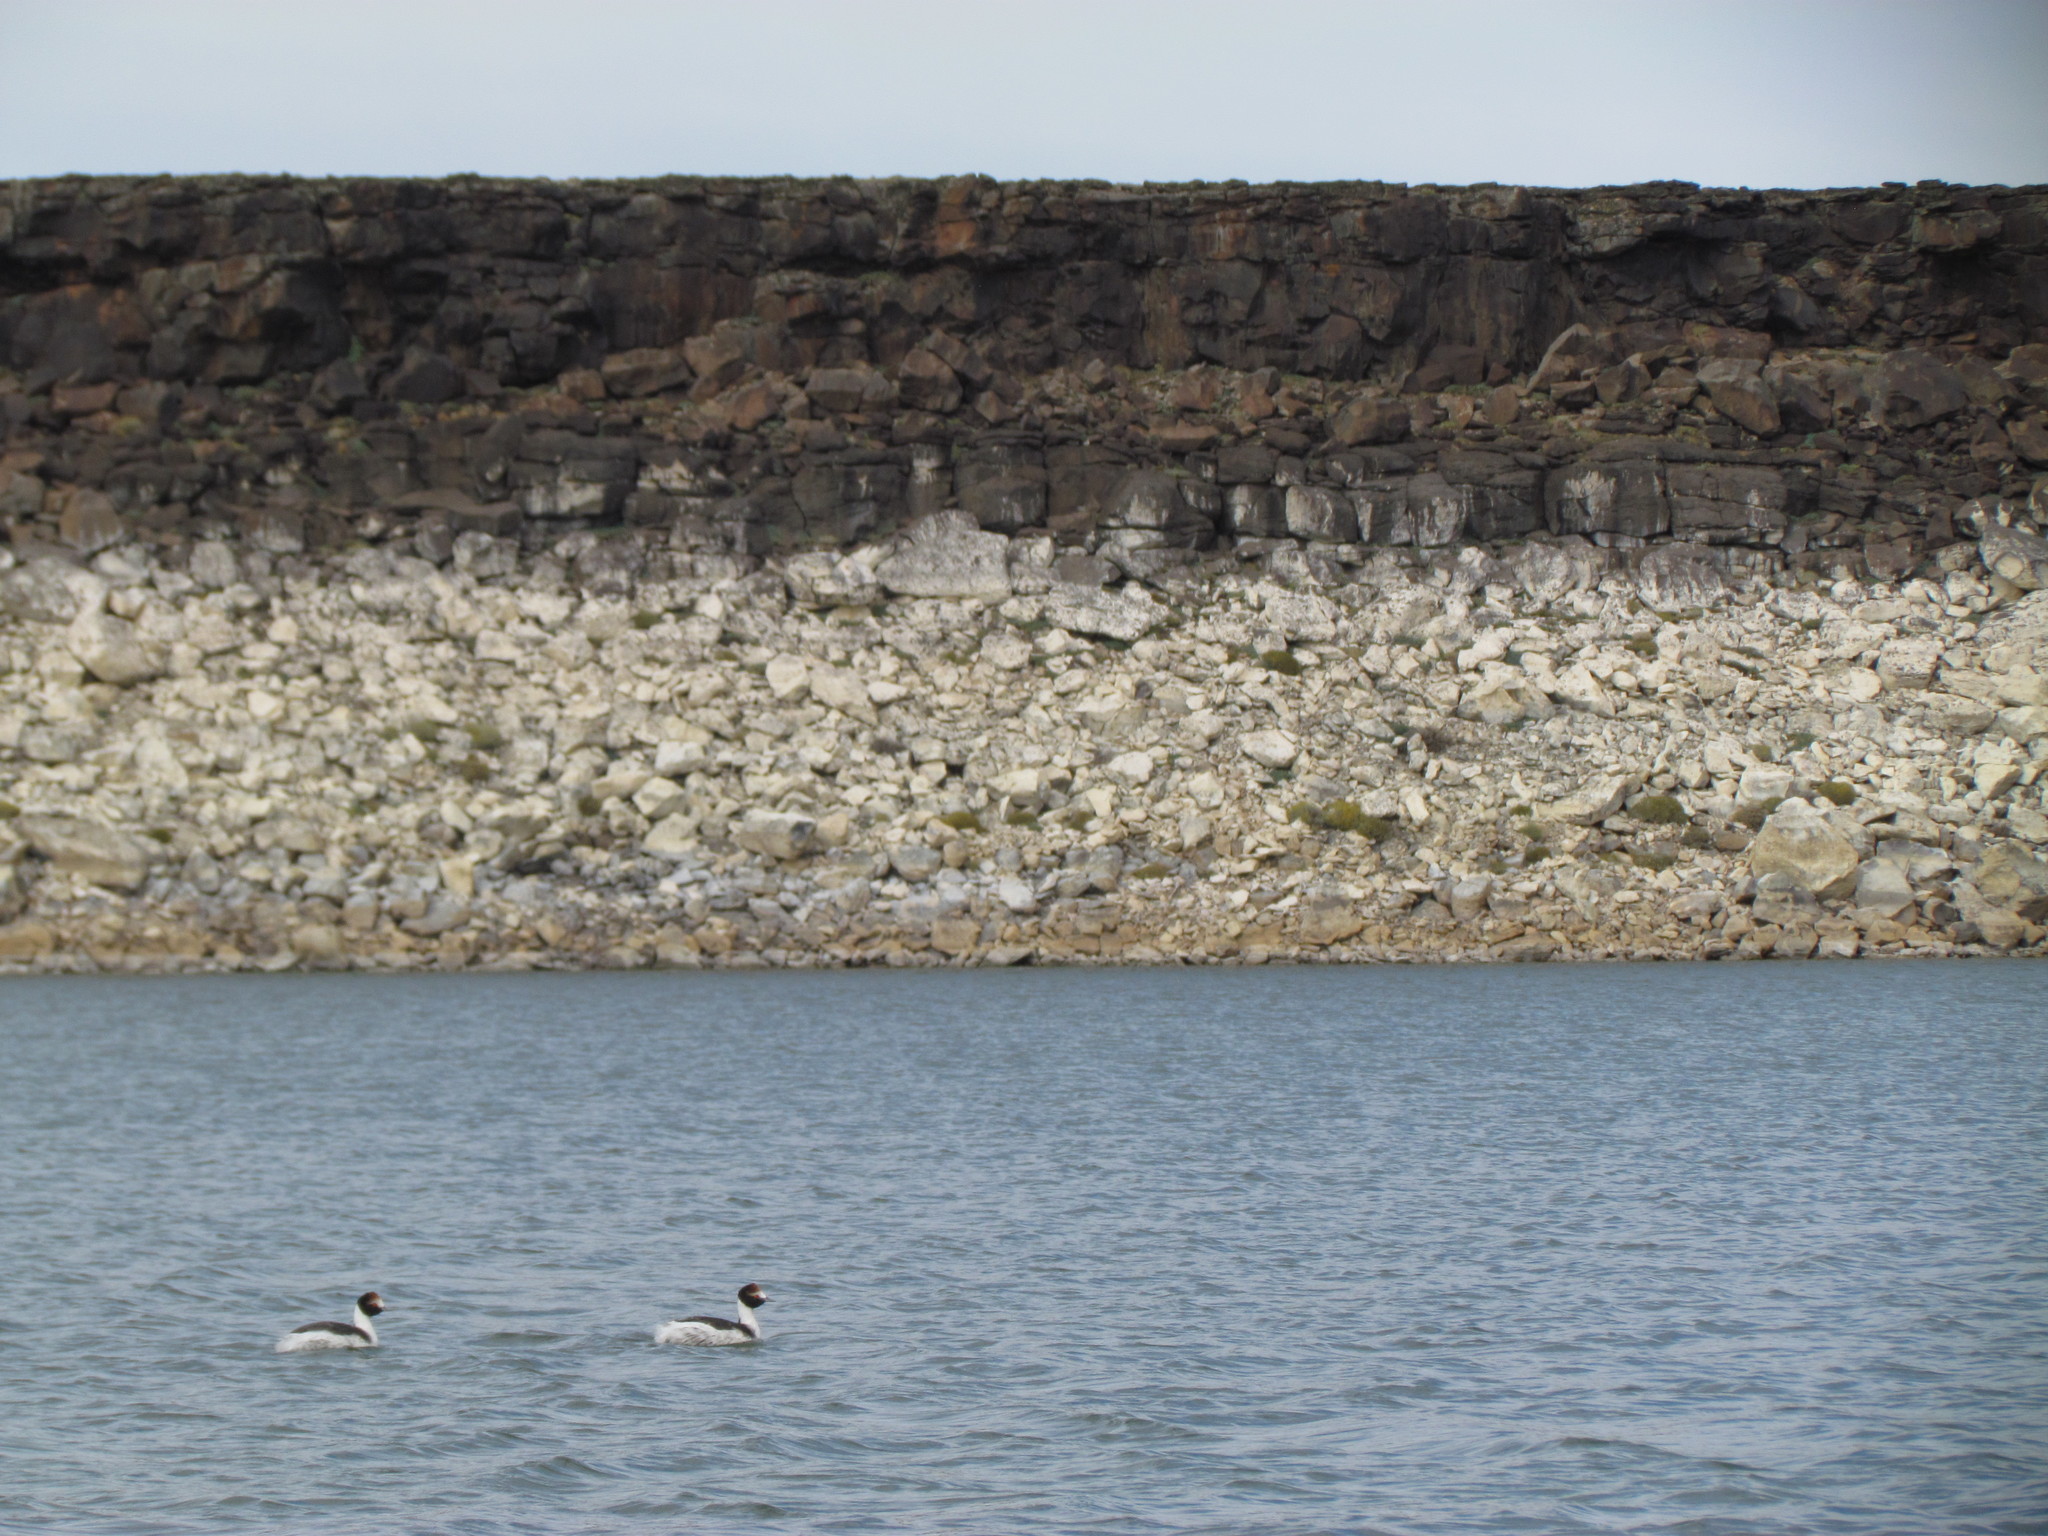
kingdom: Animalia
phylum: Chordata
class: Aves
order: Podicipediformes
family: Podicipedidae
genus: Podiceps
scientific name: Podiceps gallardoi
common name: Hooded grebe
